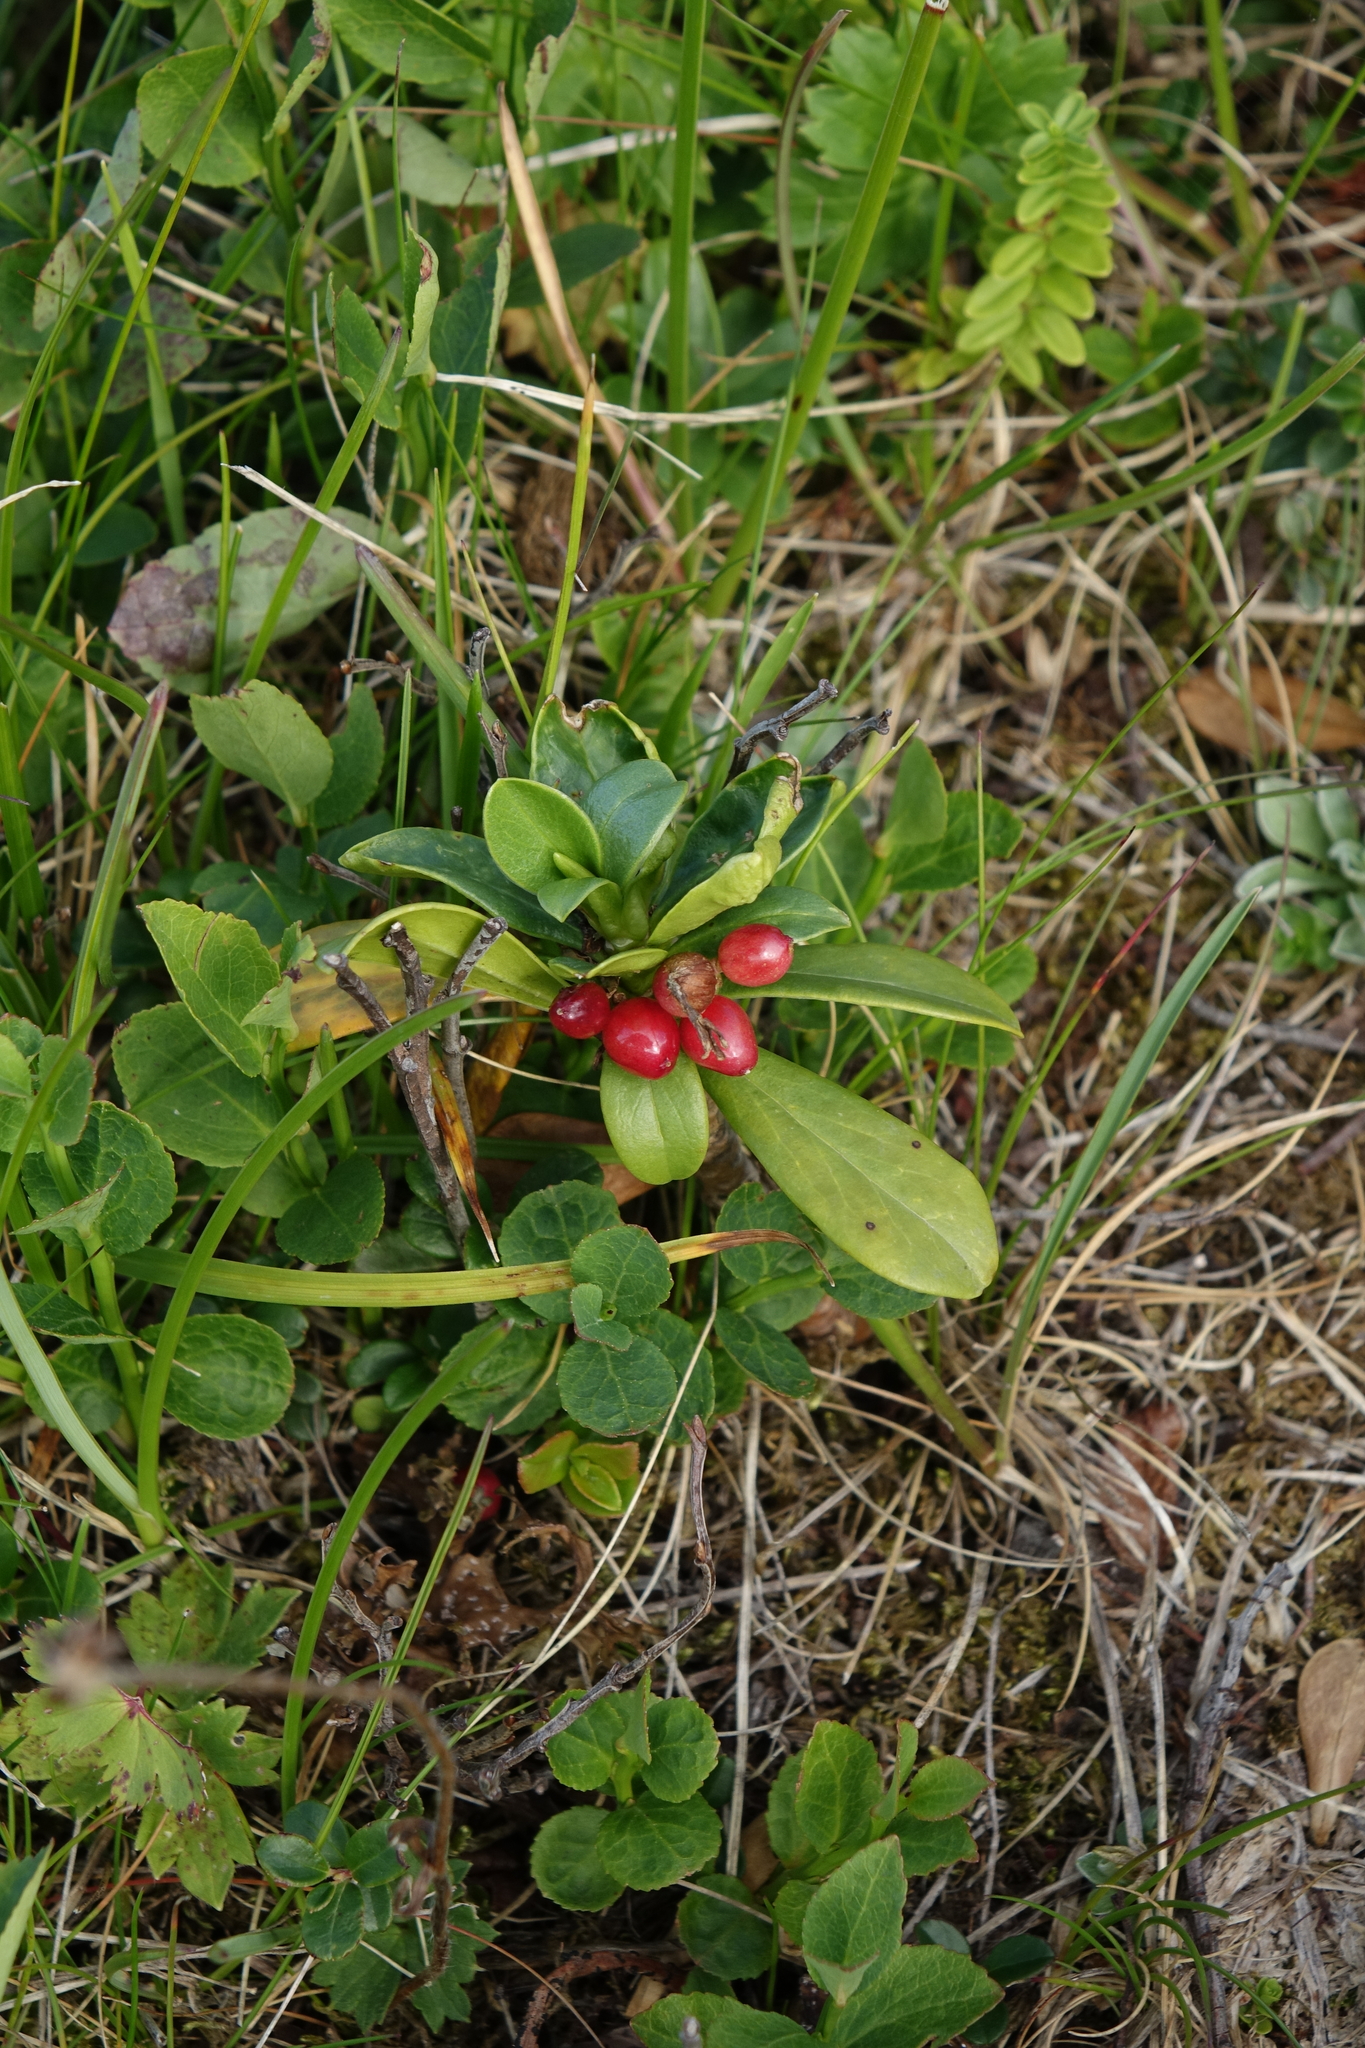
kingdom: Plantae
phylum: Tracheophyta
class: Magnoliopsida
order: Malvales
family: Thymelaeaceae
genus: Daphne
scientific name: Daphne glomerata
